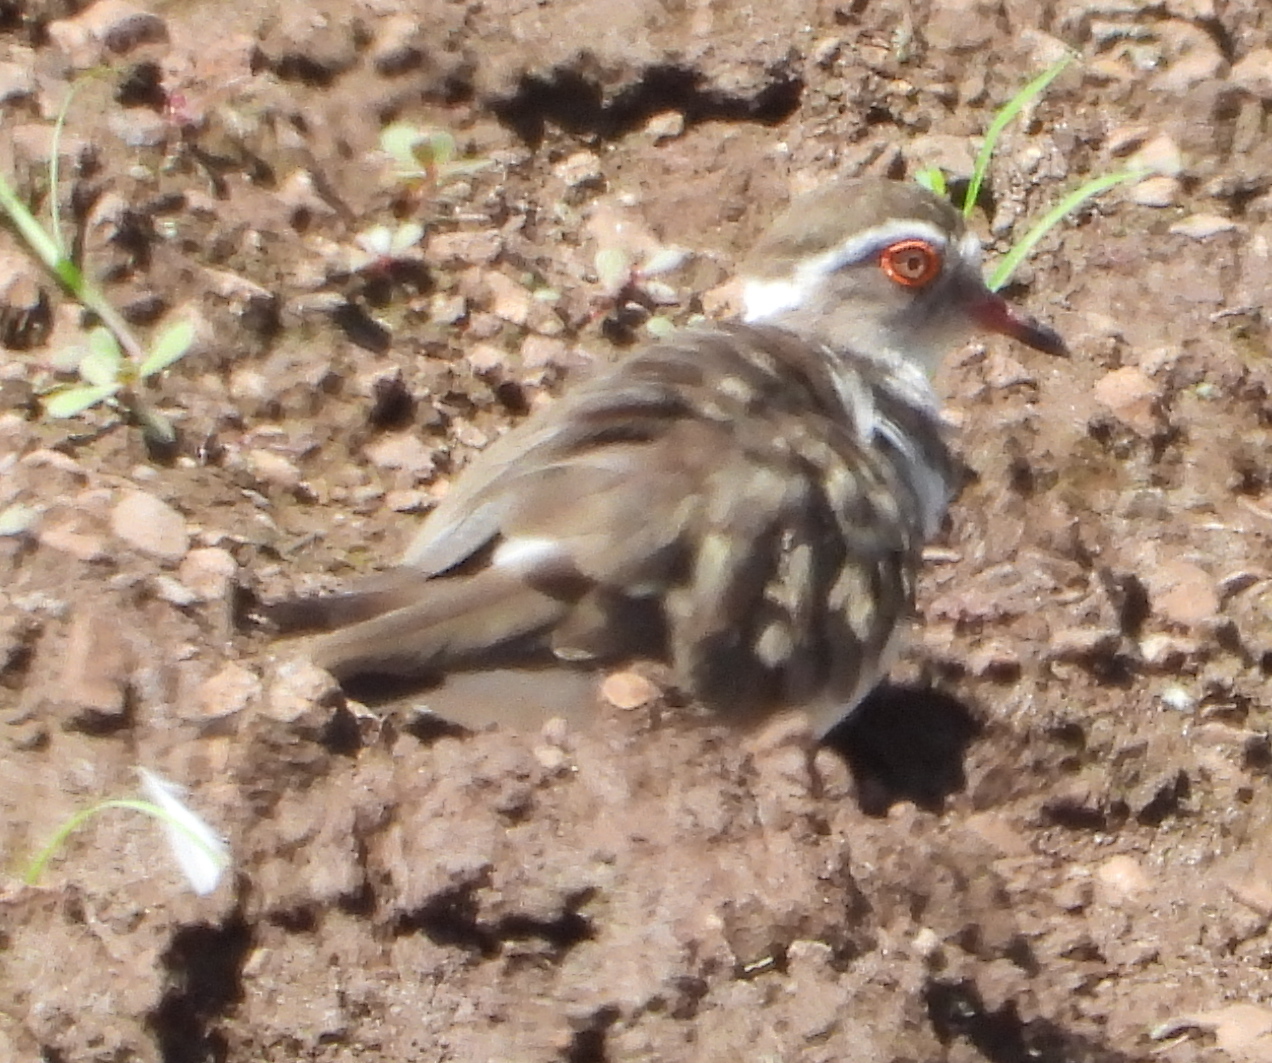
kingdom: Animalia
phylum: Chordata
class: Aves
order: Charadriiformes
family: Charadriidae
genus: Charadrius
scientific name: Charadrius tricollaris
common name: Three-banded plover
